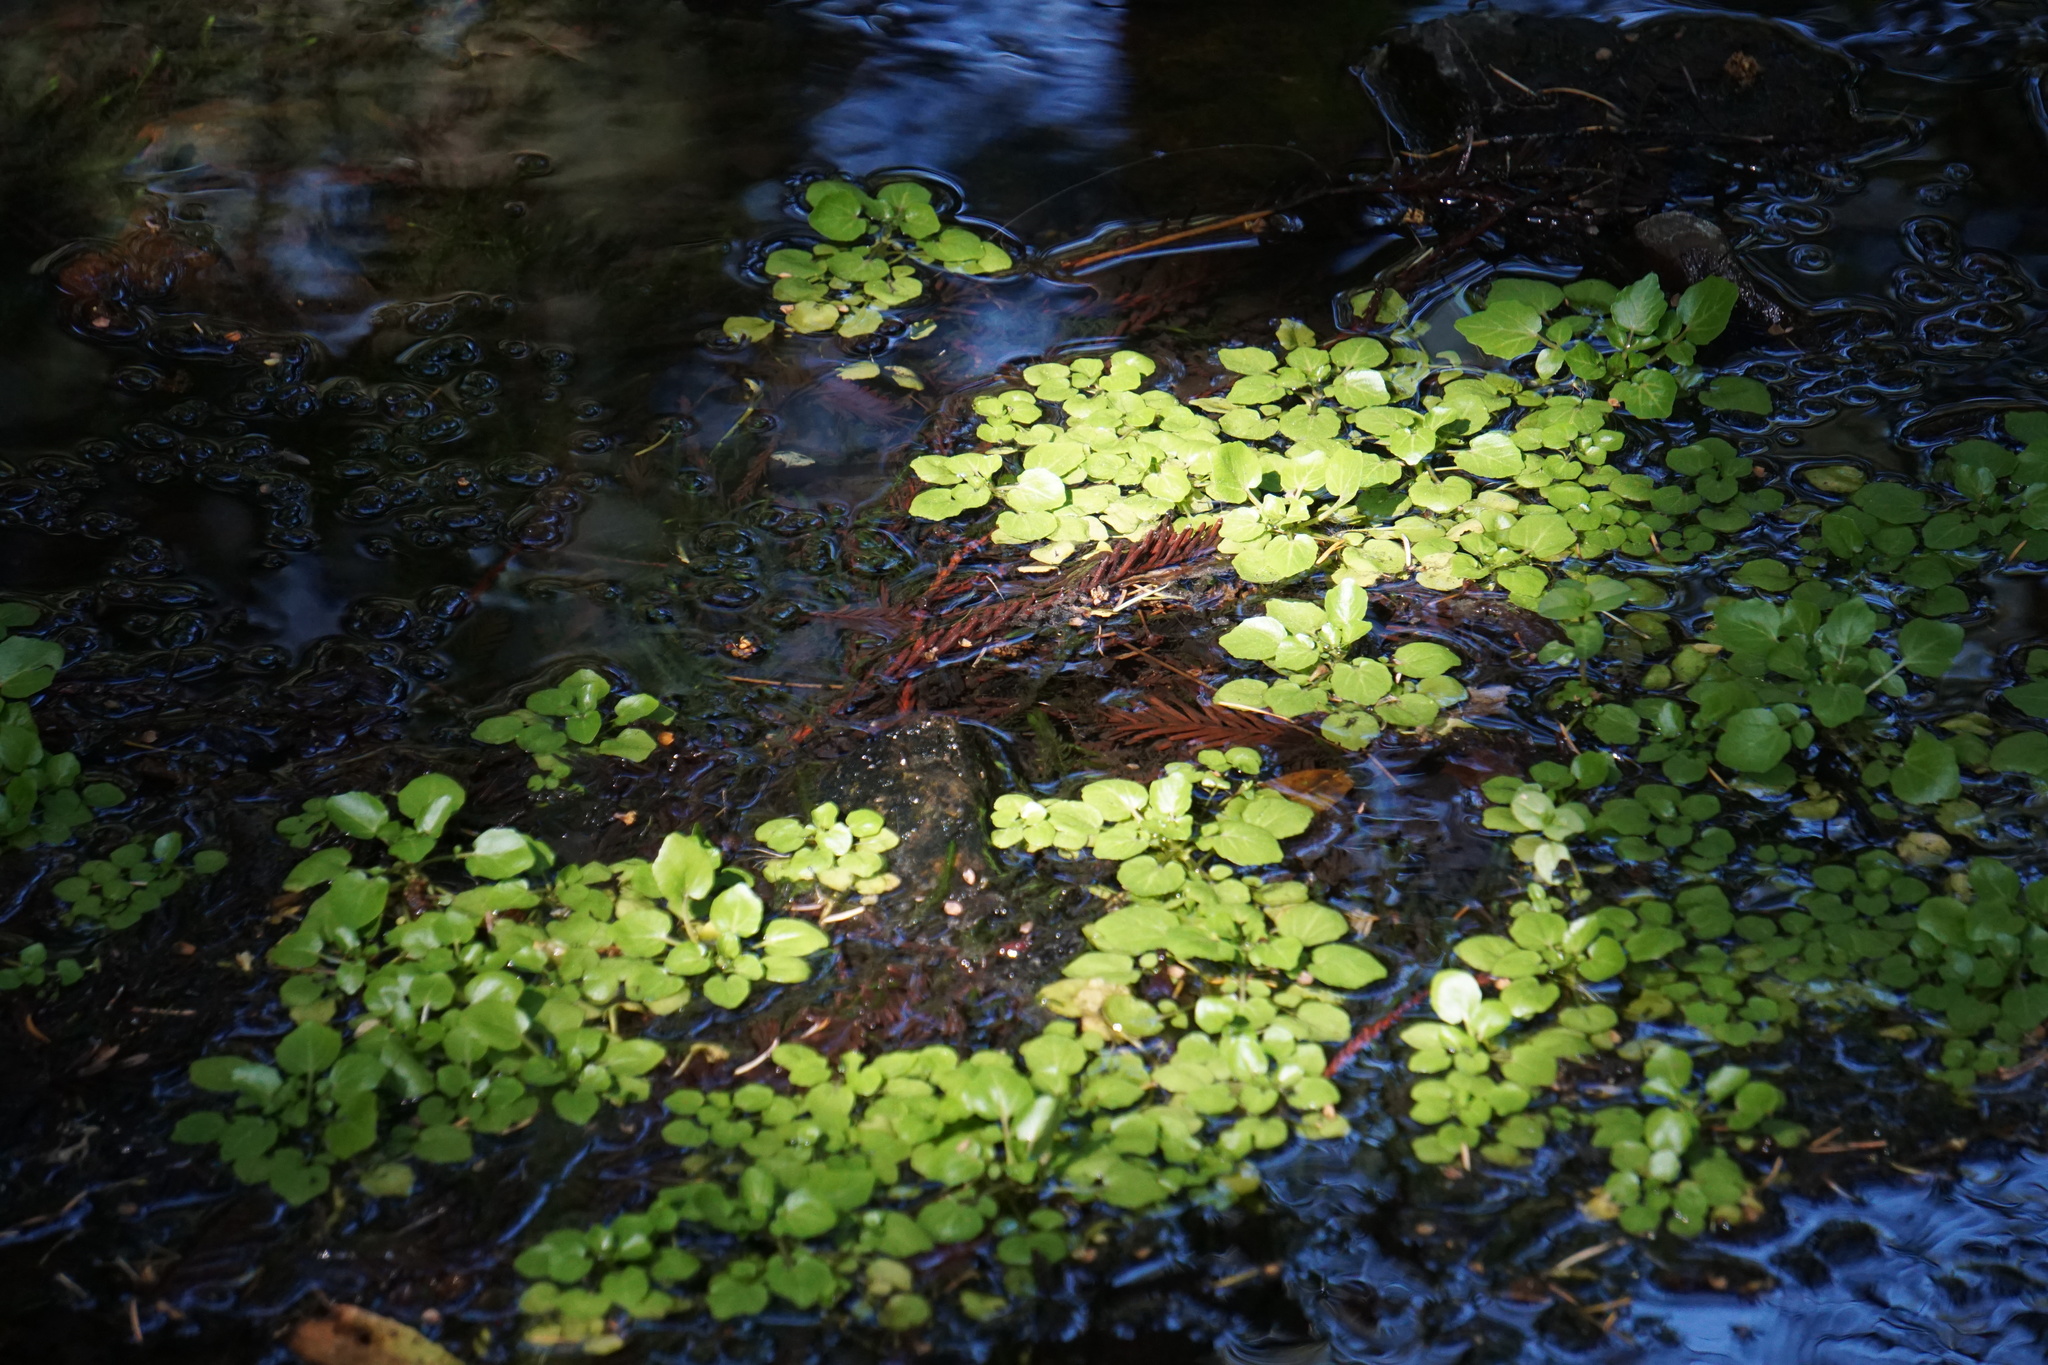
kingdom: Plantae
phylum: Tracheophyta
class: Magnoliopsida
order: Brassicales
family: Brassicaceae
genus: Nasturtium
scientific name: Nasturtium officinale
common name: Watercress
